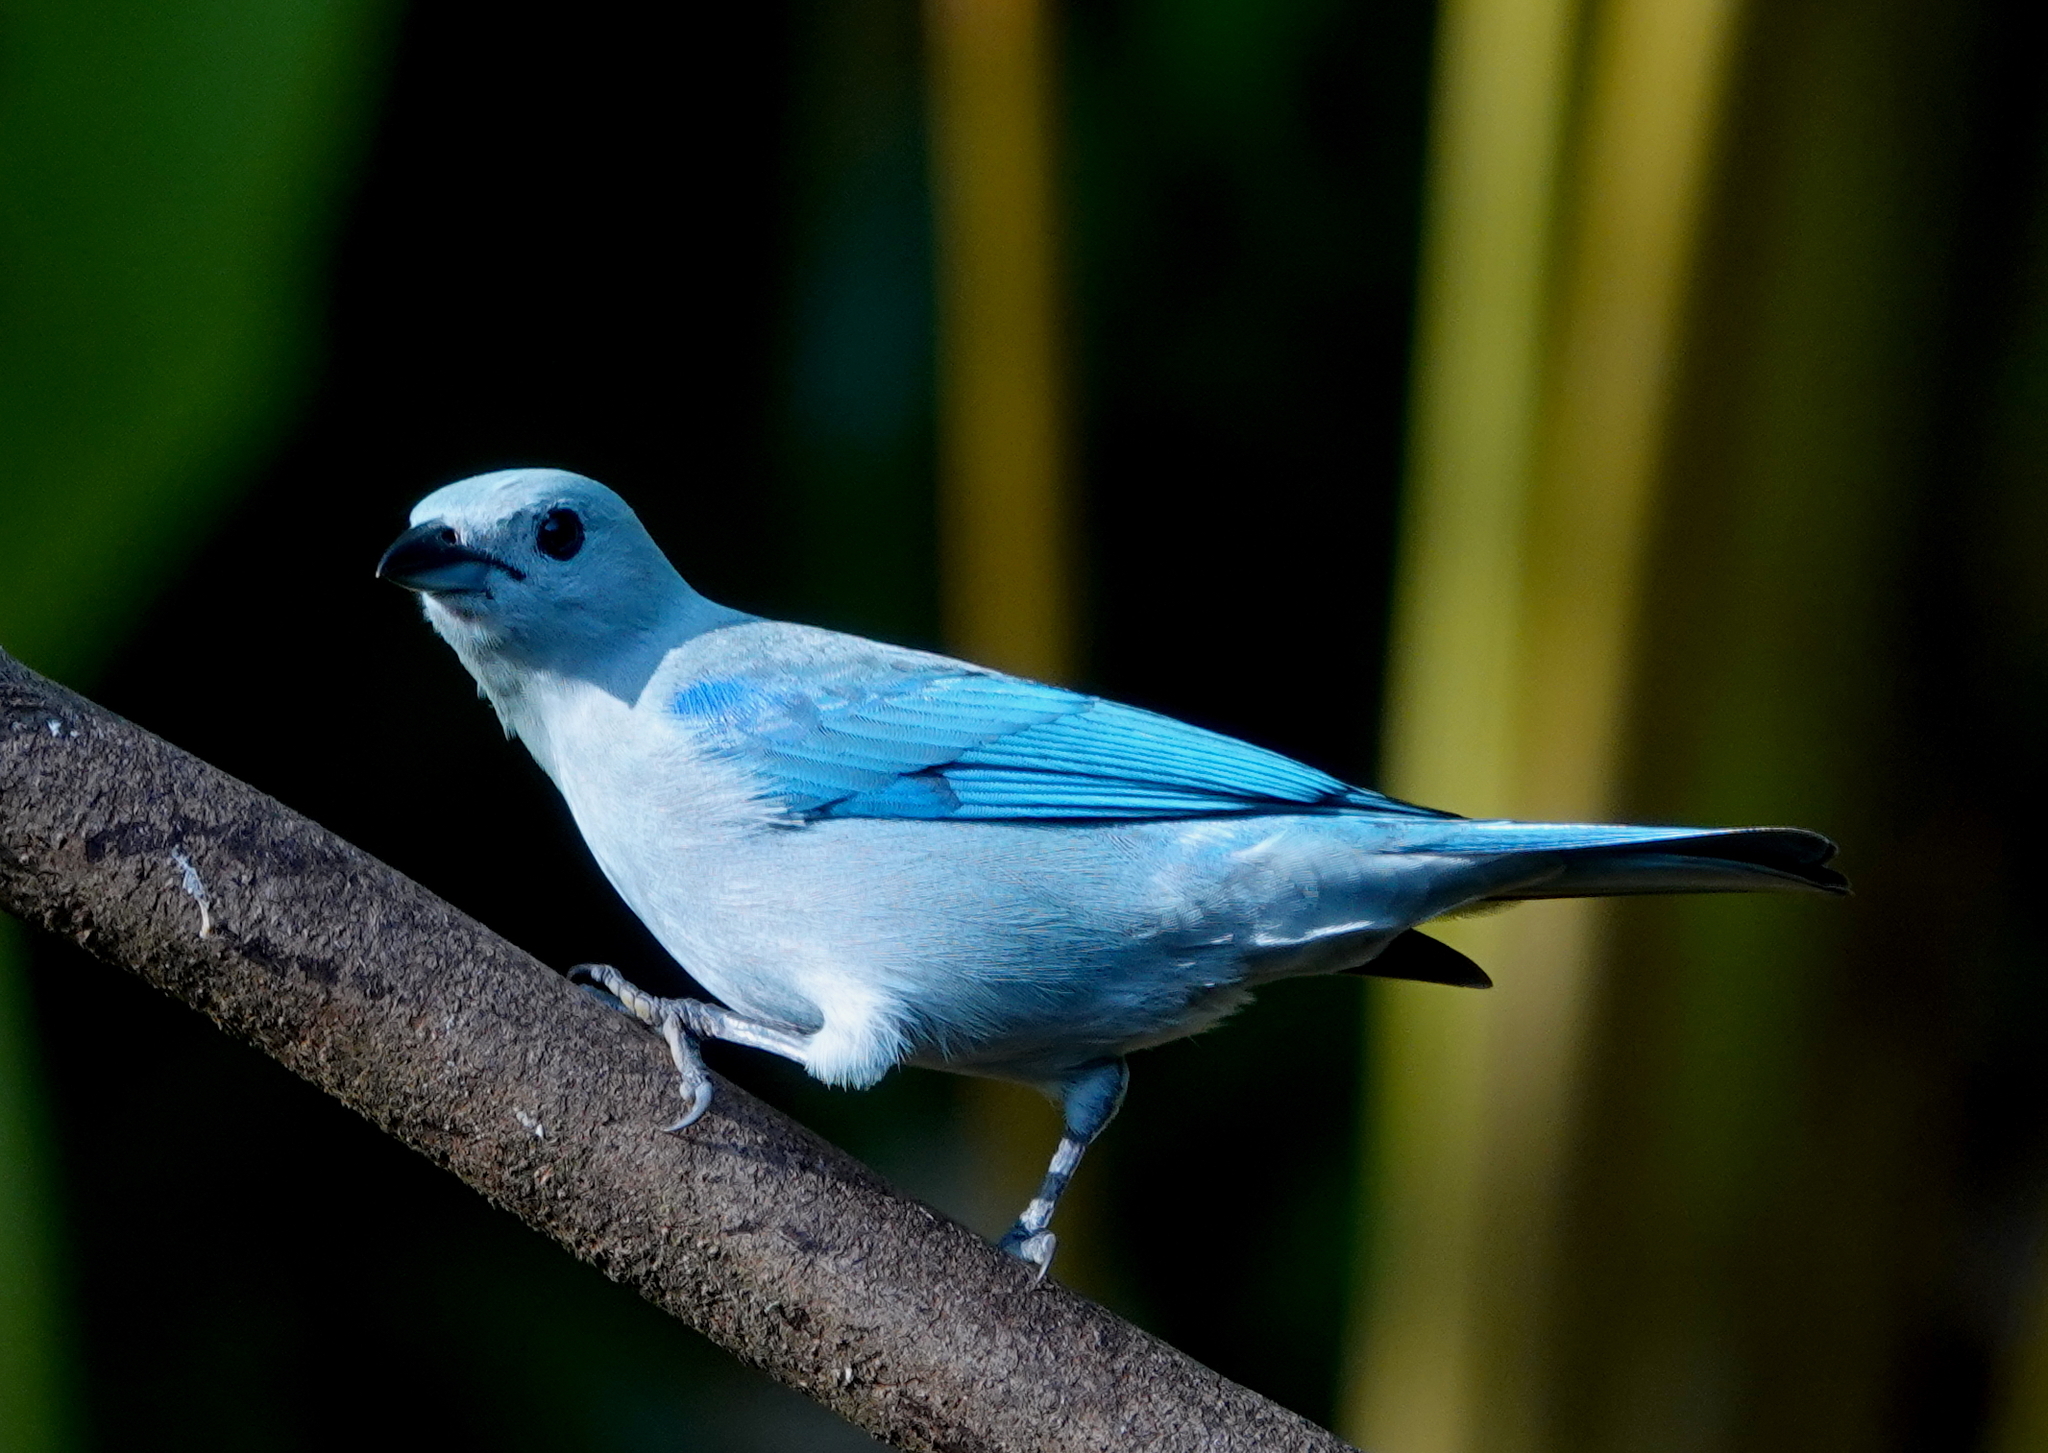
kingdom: Animalia
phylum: Chordata
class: Aves
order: Passeriformes
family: Thraupidae
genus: Thraupis
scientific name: Thraupis episcopus
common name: Blue-grey tanager
